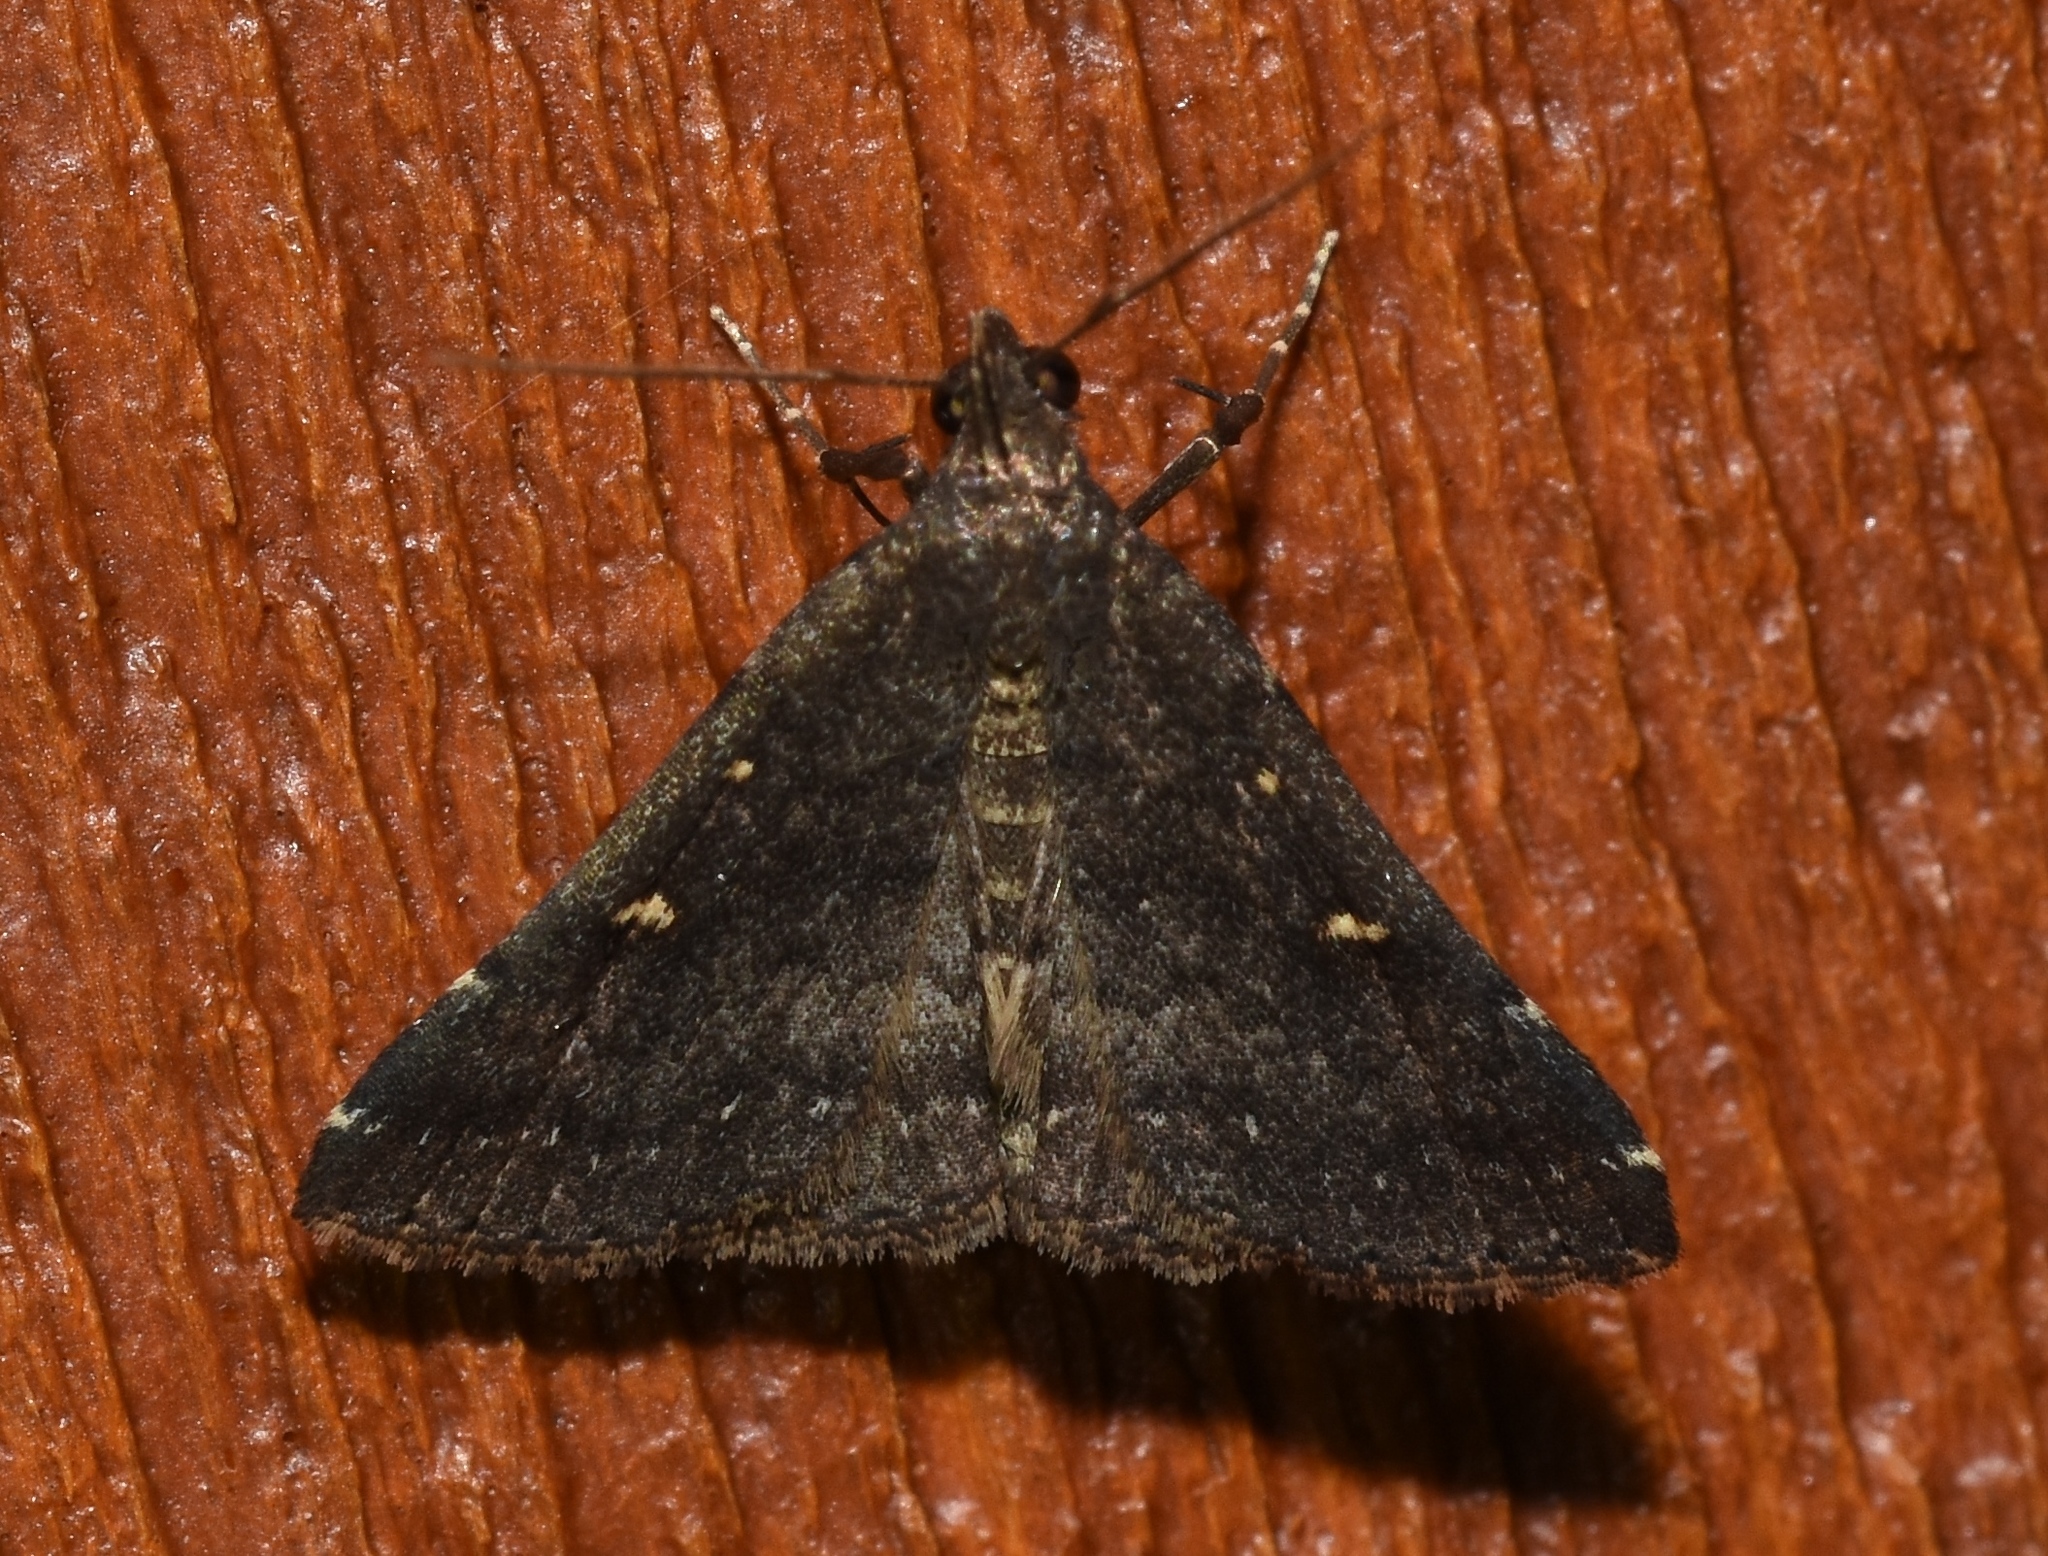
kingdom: Animalia
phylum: Arthropoda
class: Insecta
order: Lepidoptera
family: Erebidae
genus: Tetanolita
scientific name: Tetanolita mynesalis
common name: Smoky tetanolita moth
